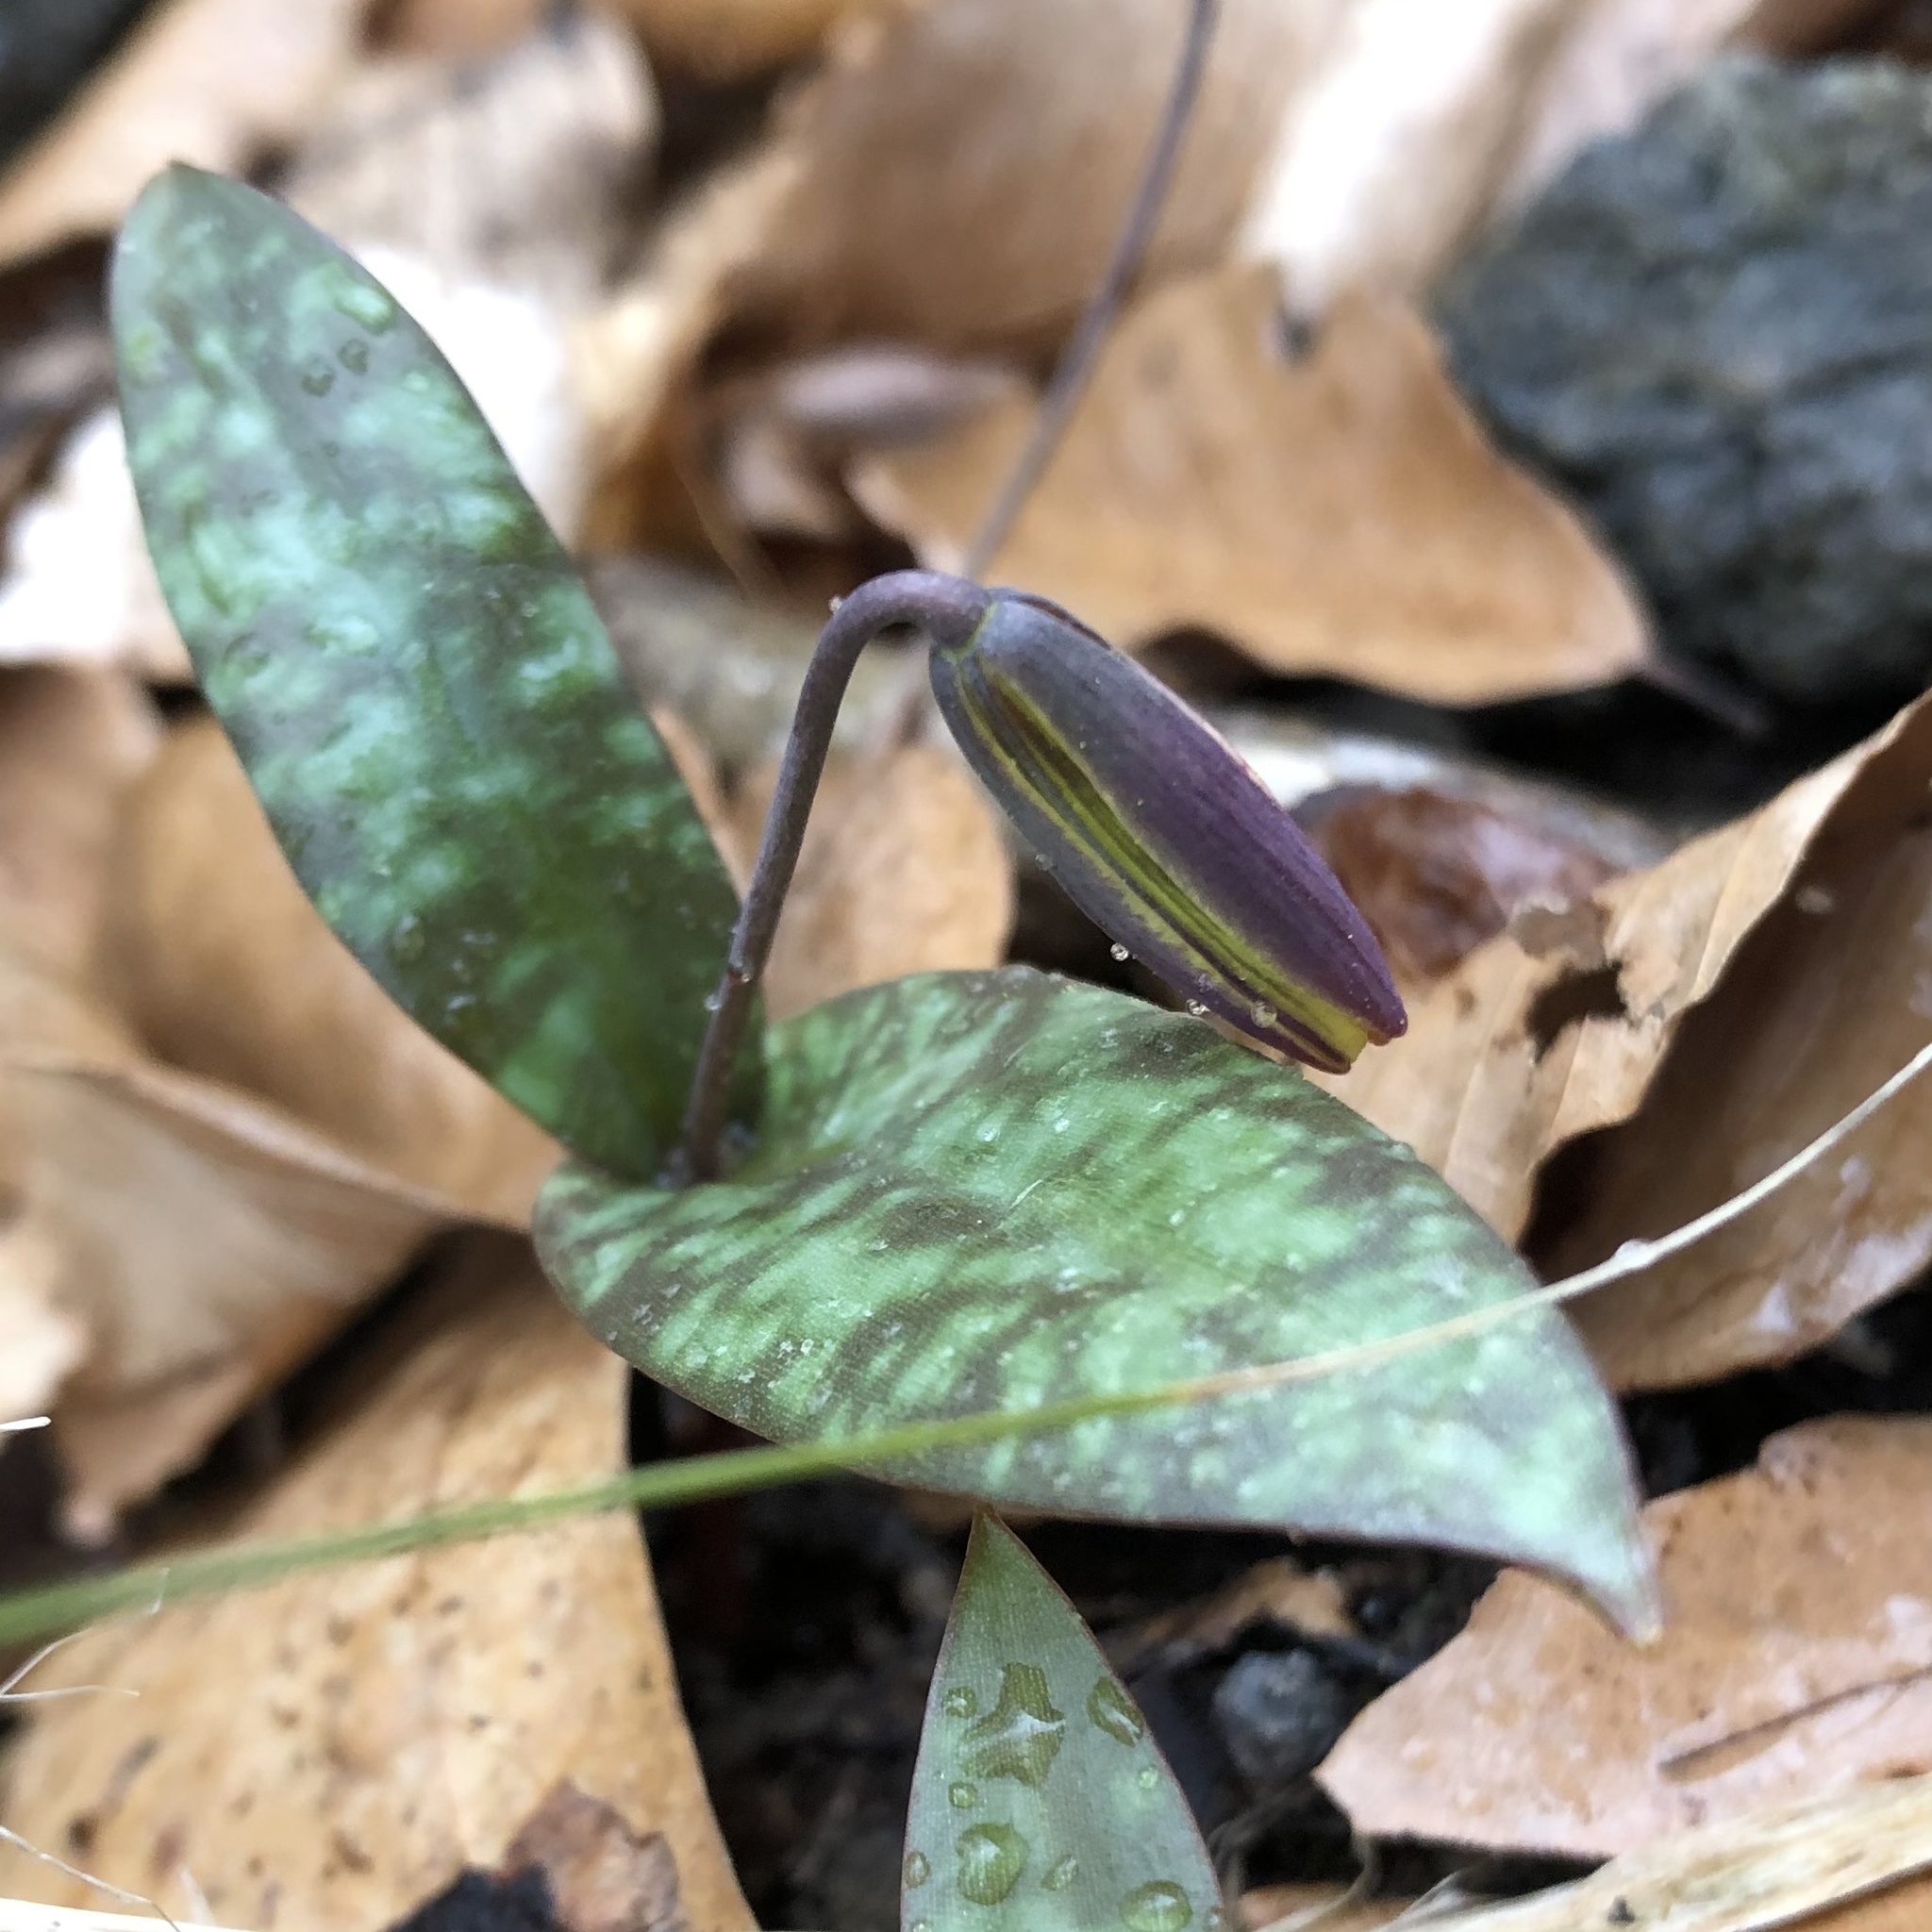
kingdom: Plantae
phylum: Tracheophyta
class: Liliopsida
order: Liliales
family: Liliaceae
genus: Erythronium
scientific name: Erythronium umbilicatum
